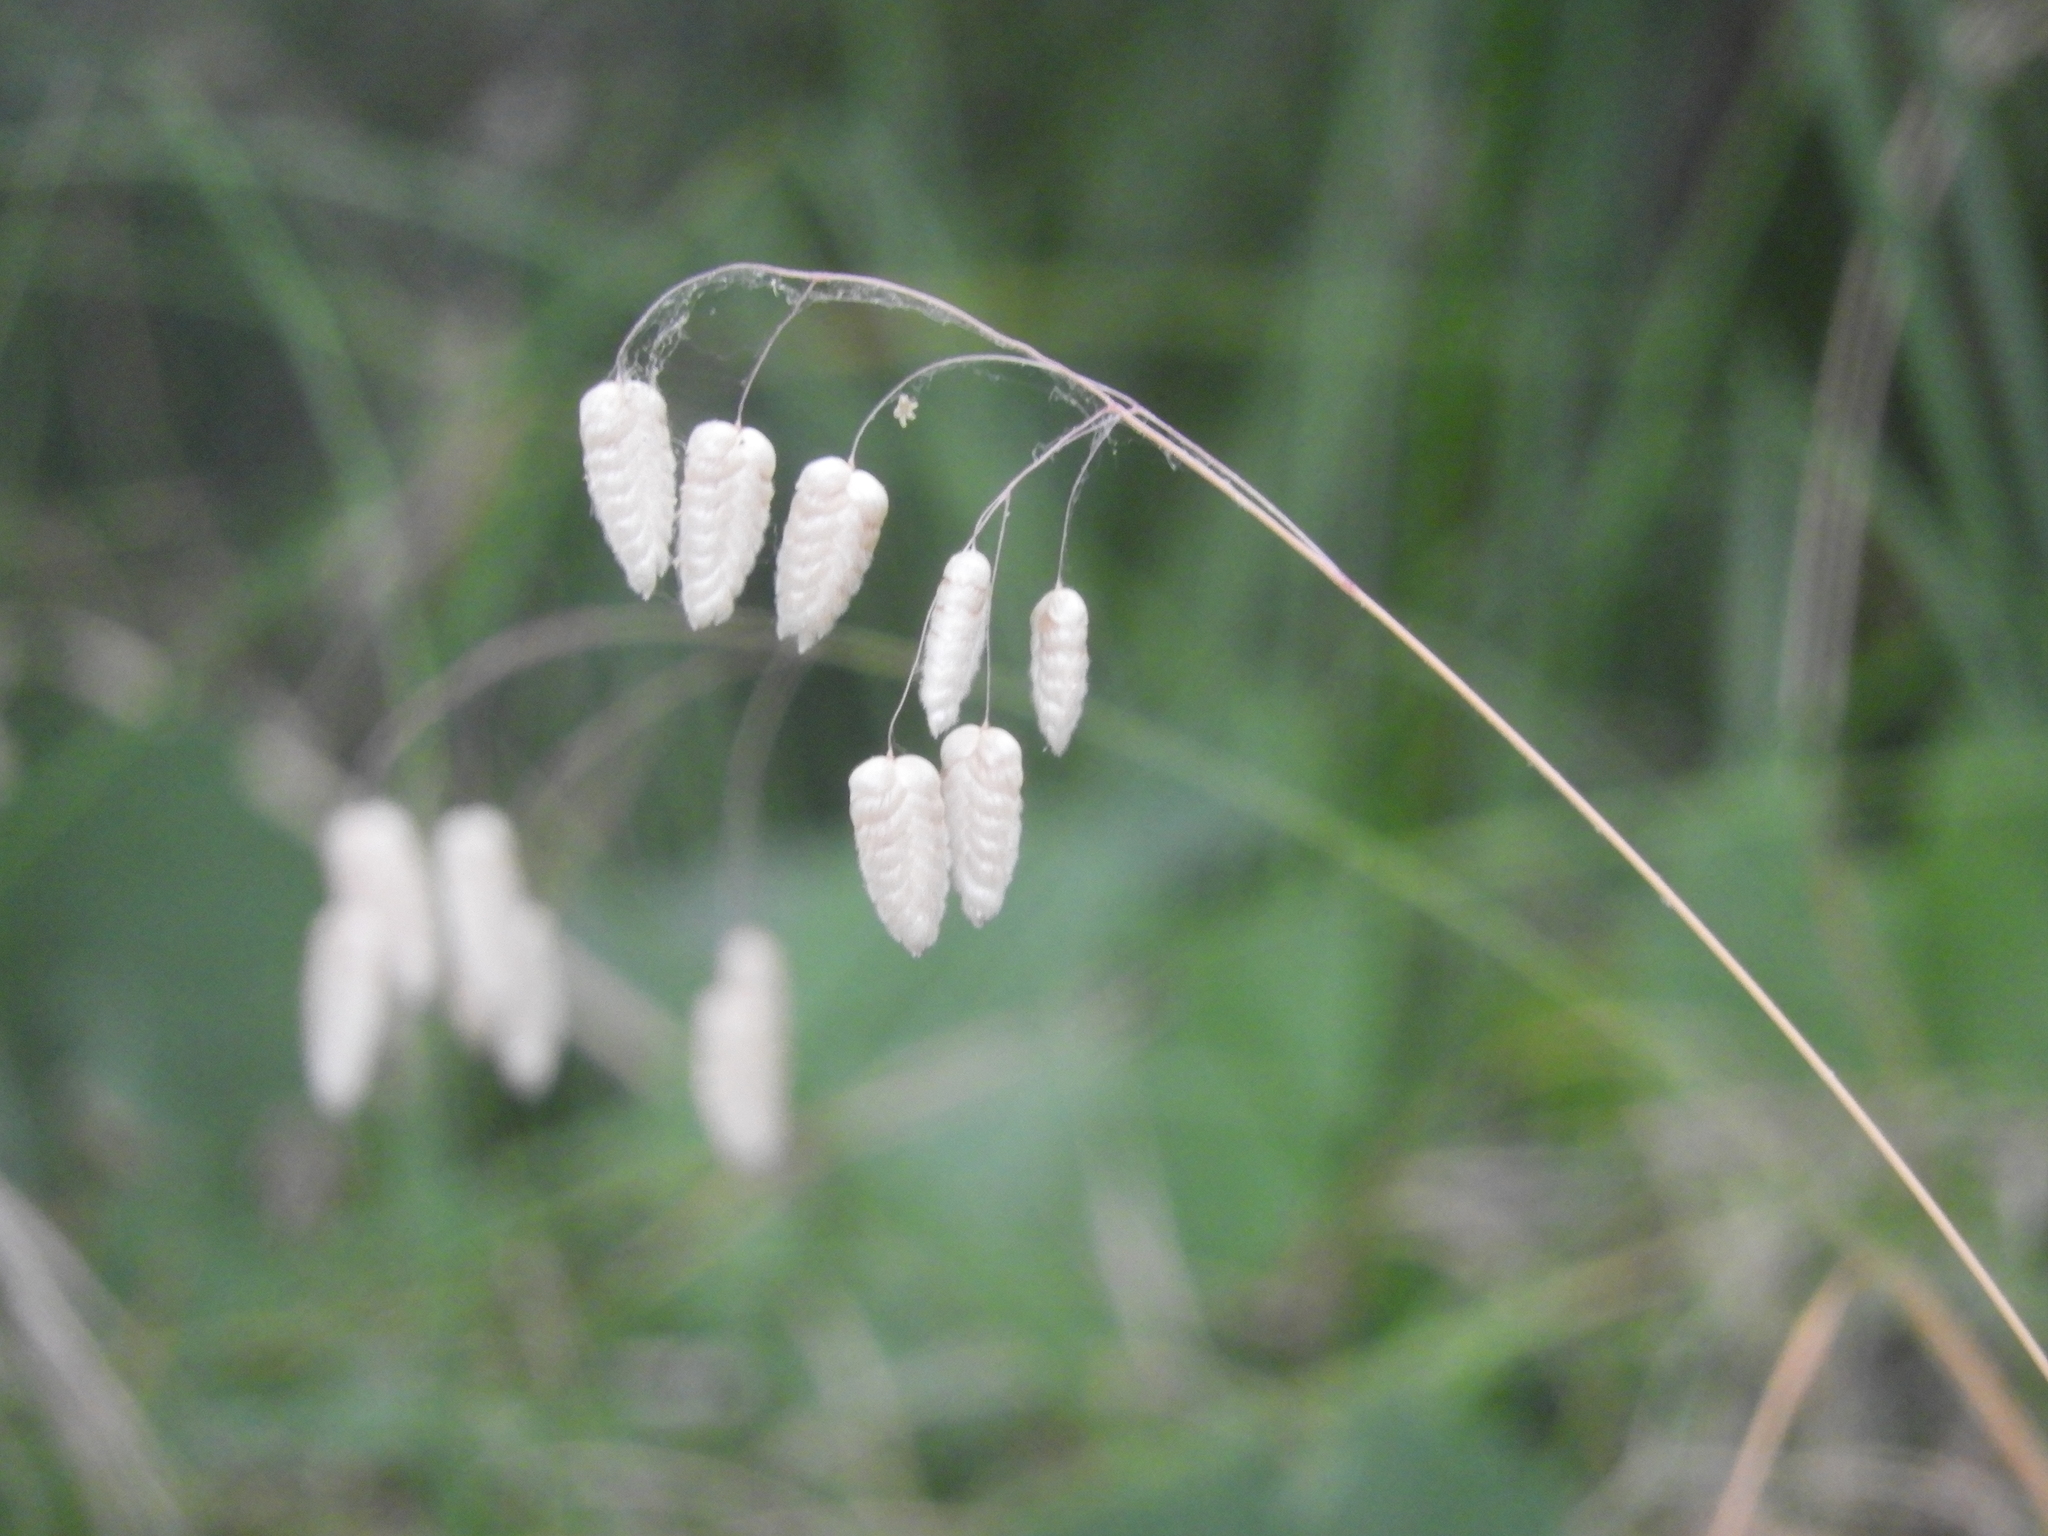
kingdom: Plantae
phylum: Tracheophyta
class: Liliopsida
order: Poales
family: Poaceae
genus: Briza
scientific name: Briza maxima
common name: Big quakinggrass
